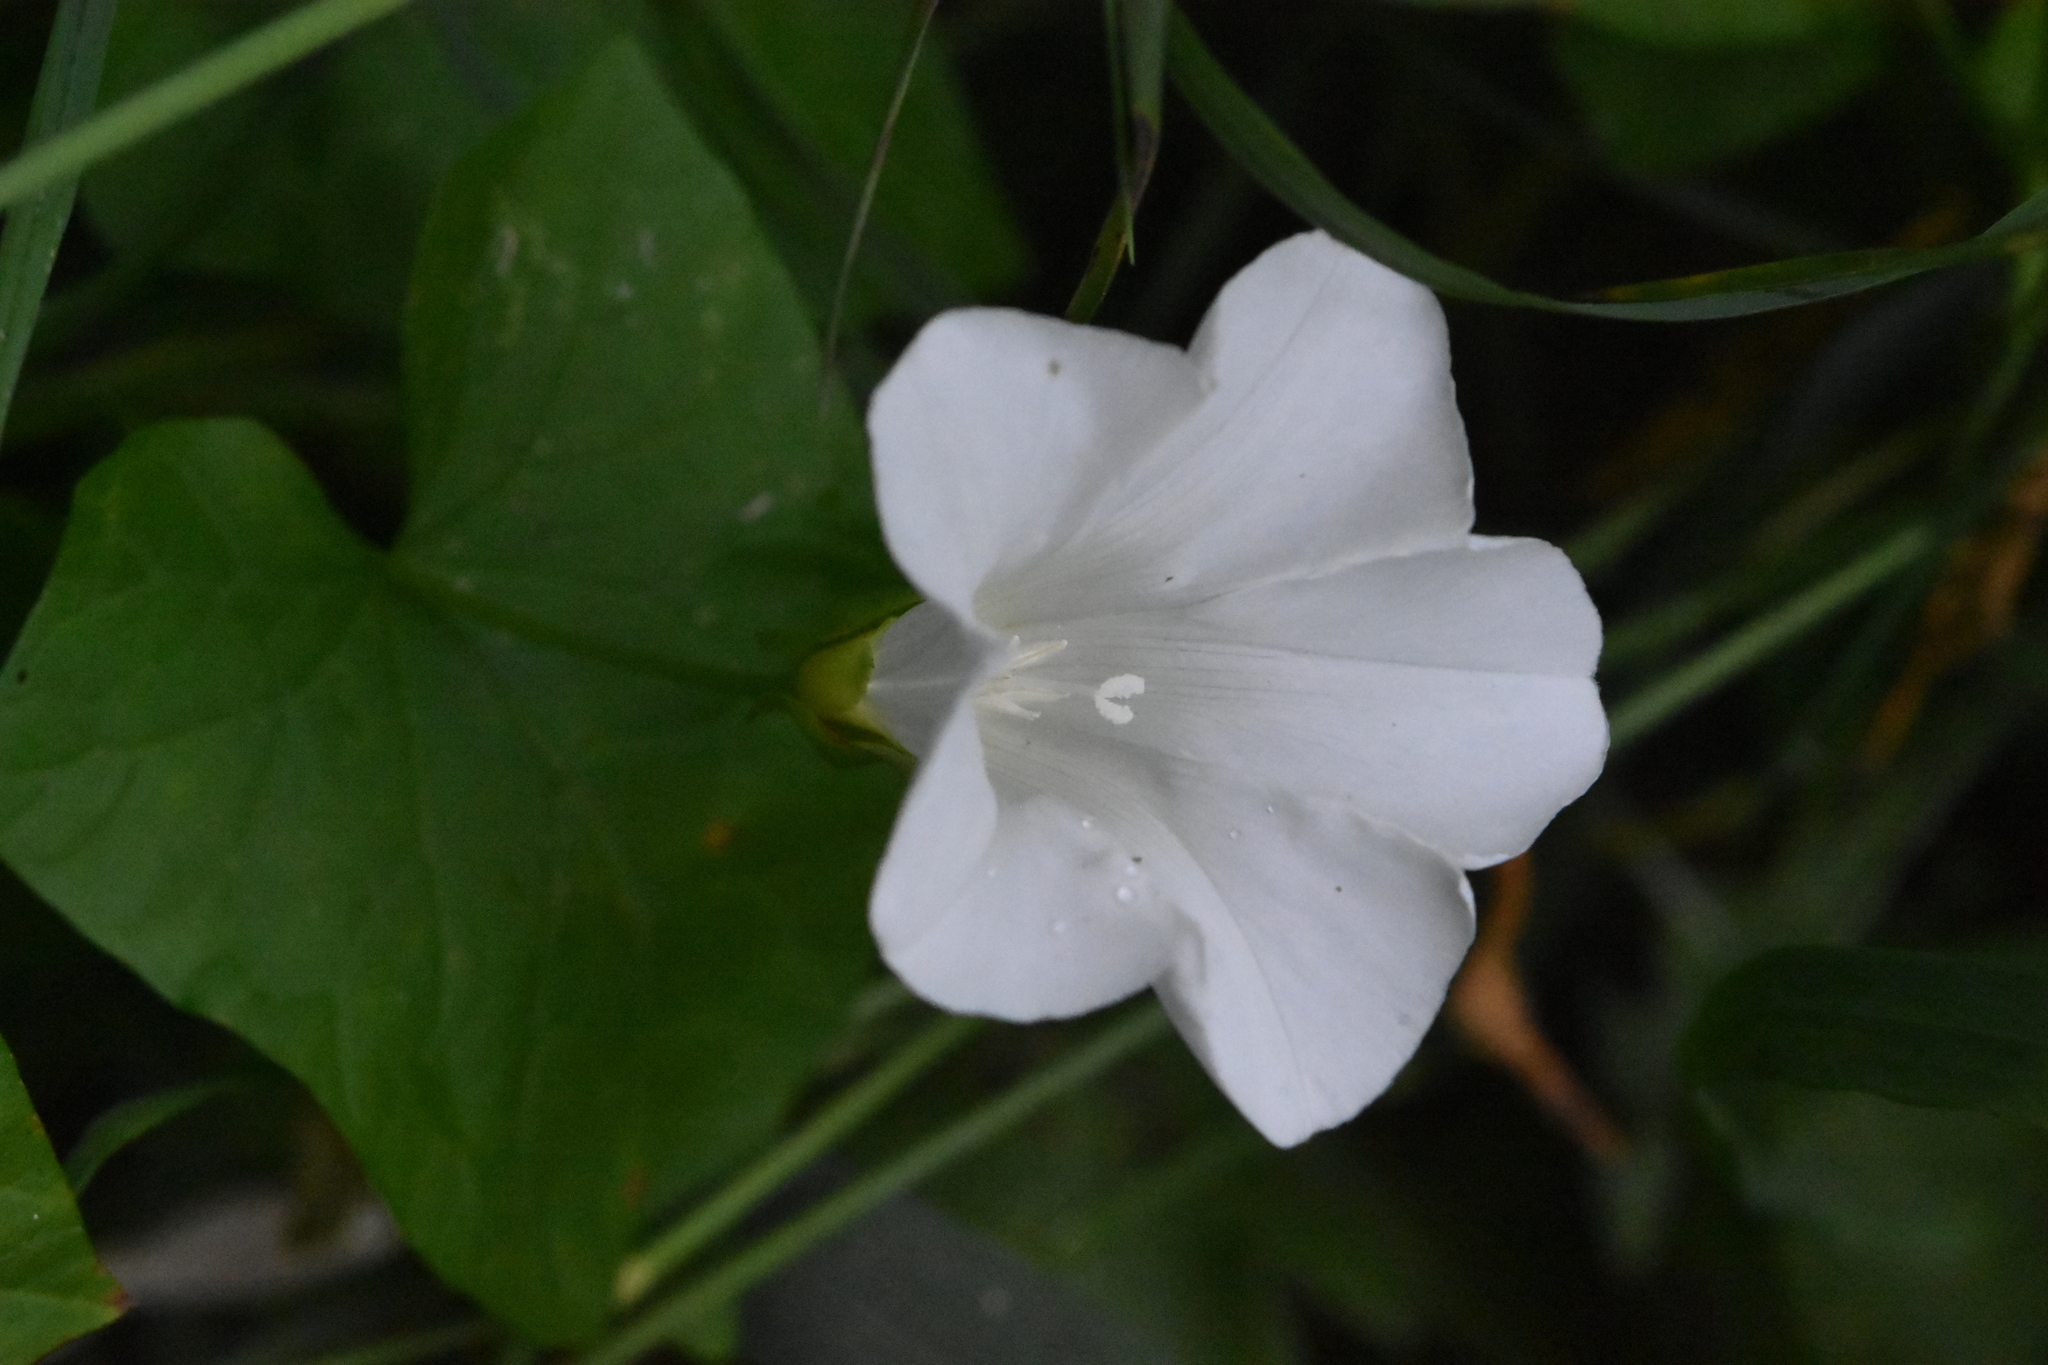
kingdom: Plantae
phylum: Tracheophyta
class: Magnoliopsida
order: Solanales
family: Convolvulaceae
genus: Calystegia
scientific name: Calystegia sepium
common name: Hedge bindweed
